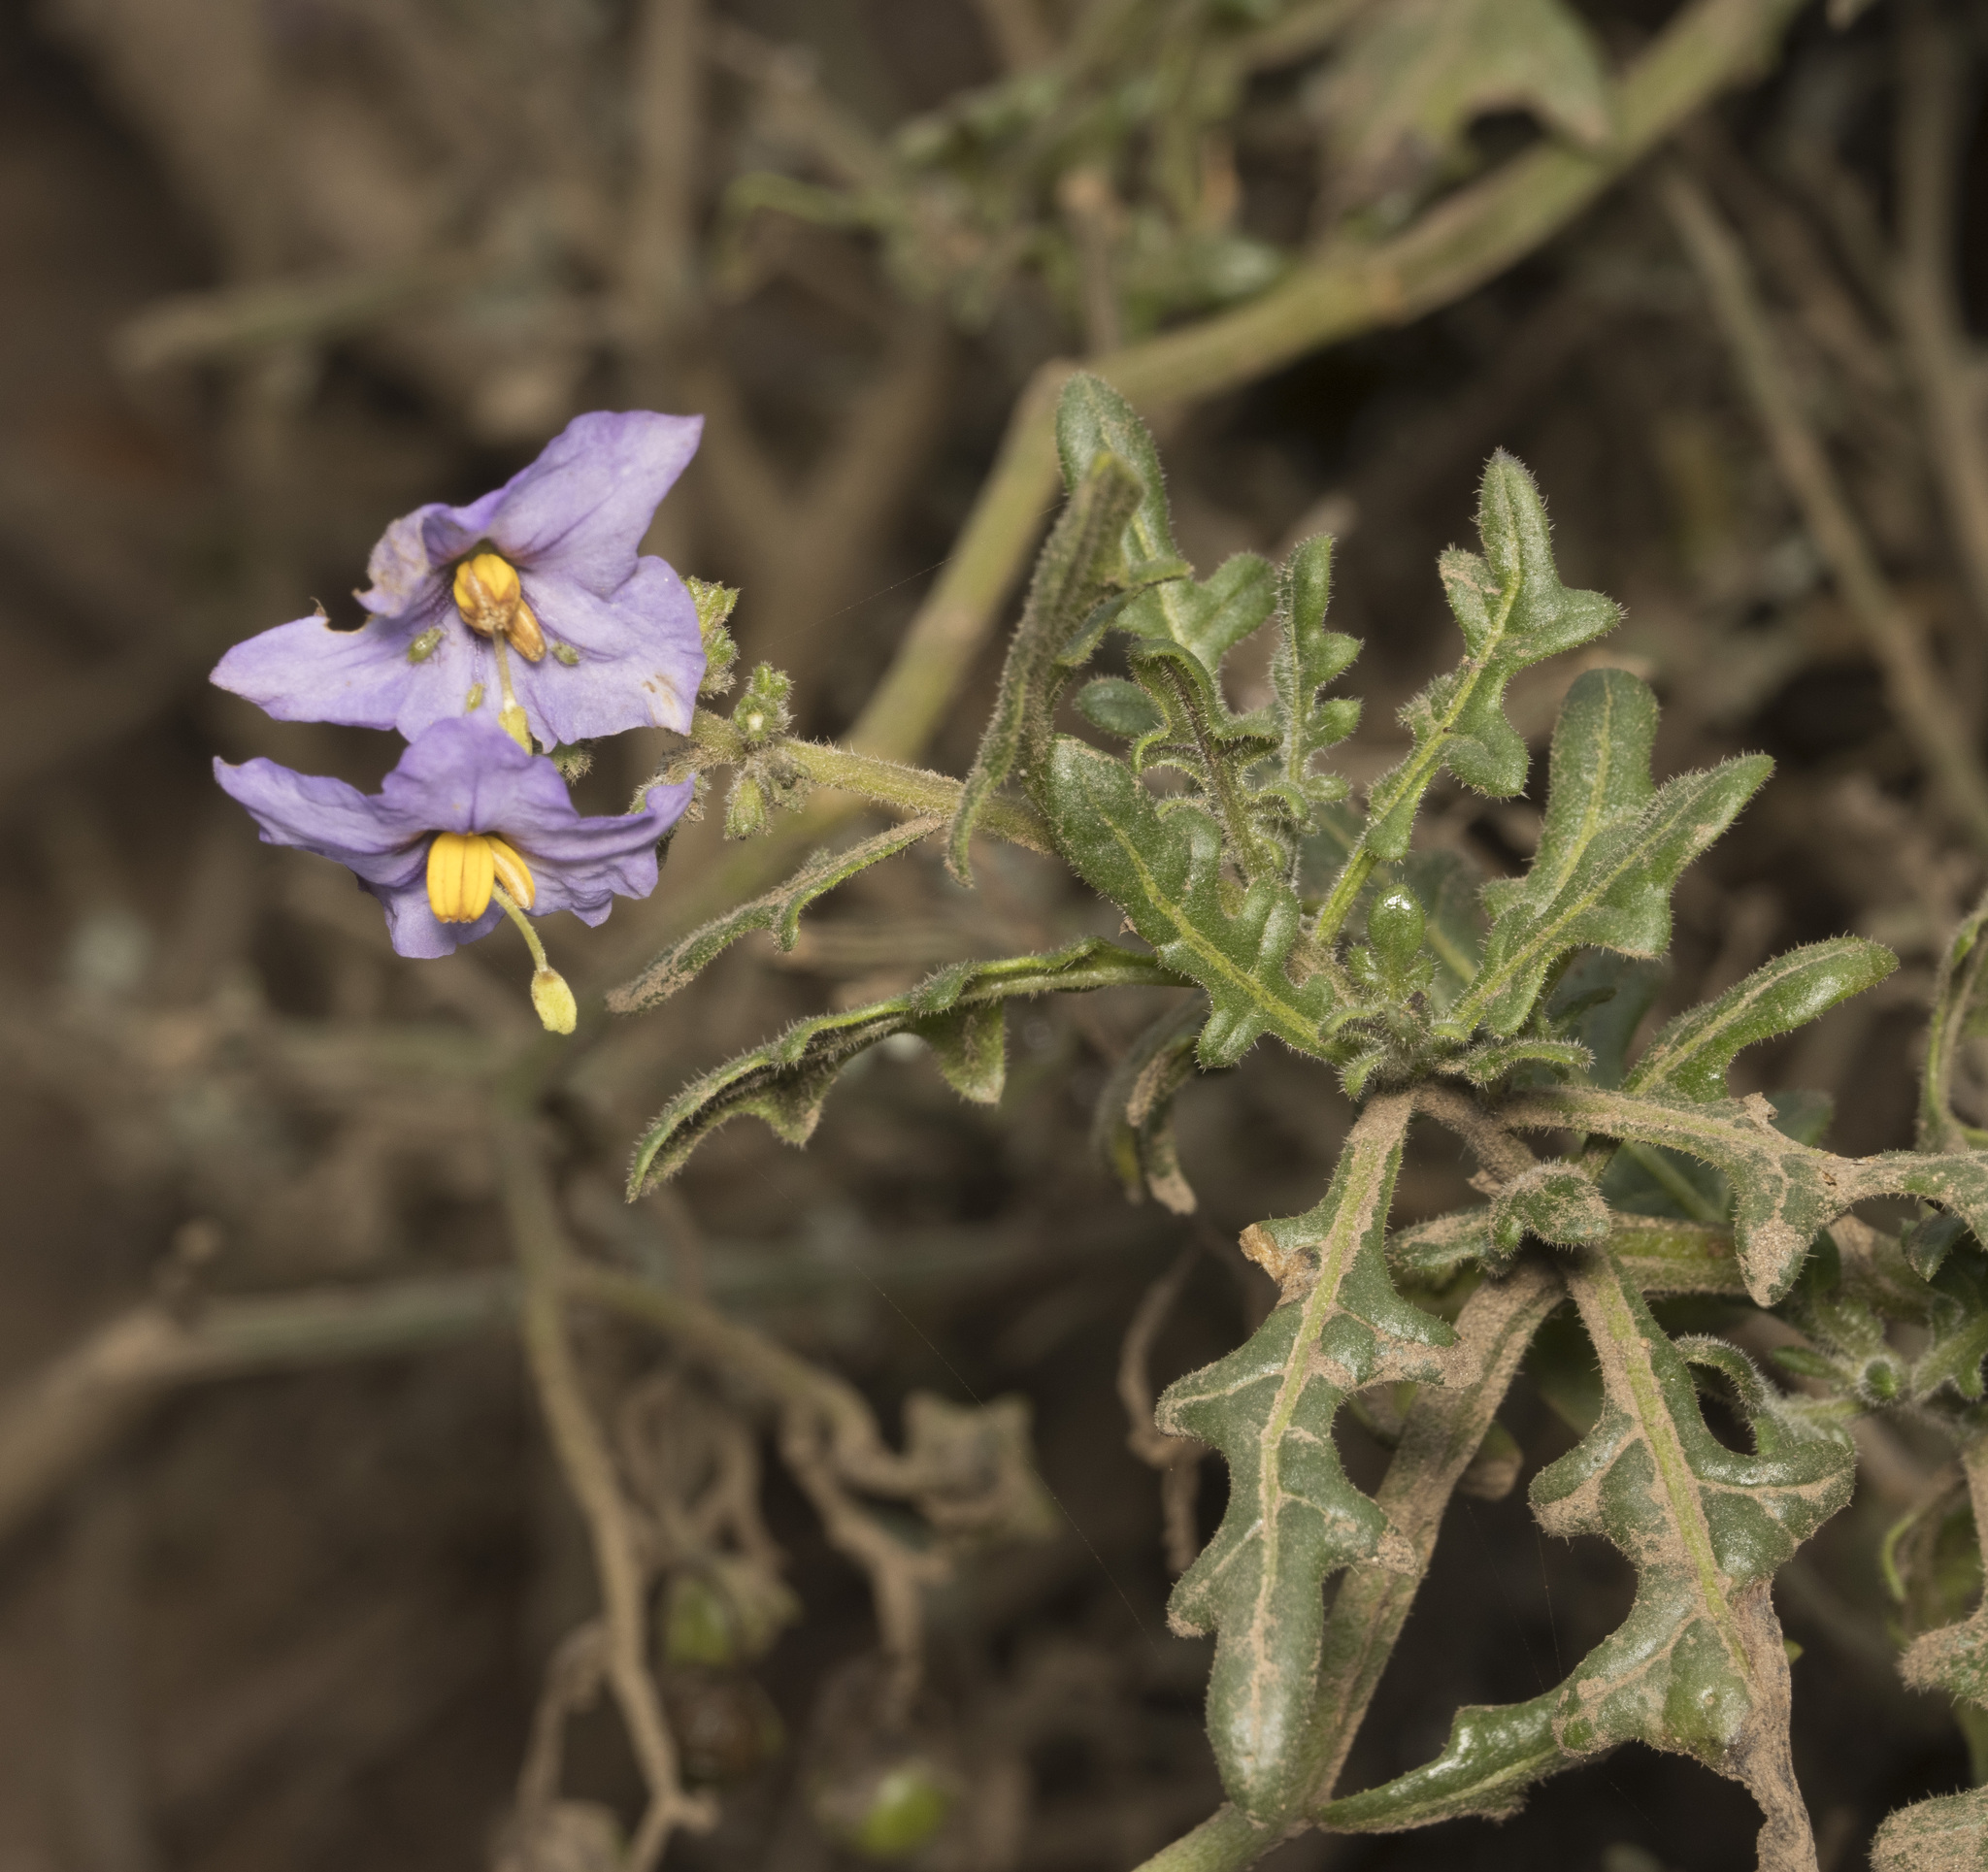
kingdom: Plantae
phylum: Tracheophyta
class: Magnoliopsida
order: Solanales
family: Solanaceae
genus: Solanum
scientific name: Solanum pinnatum
